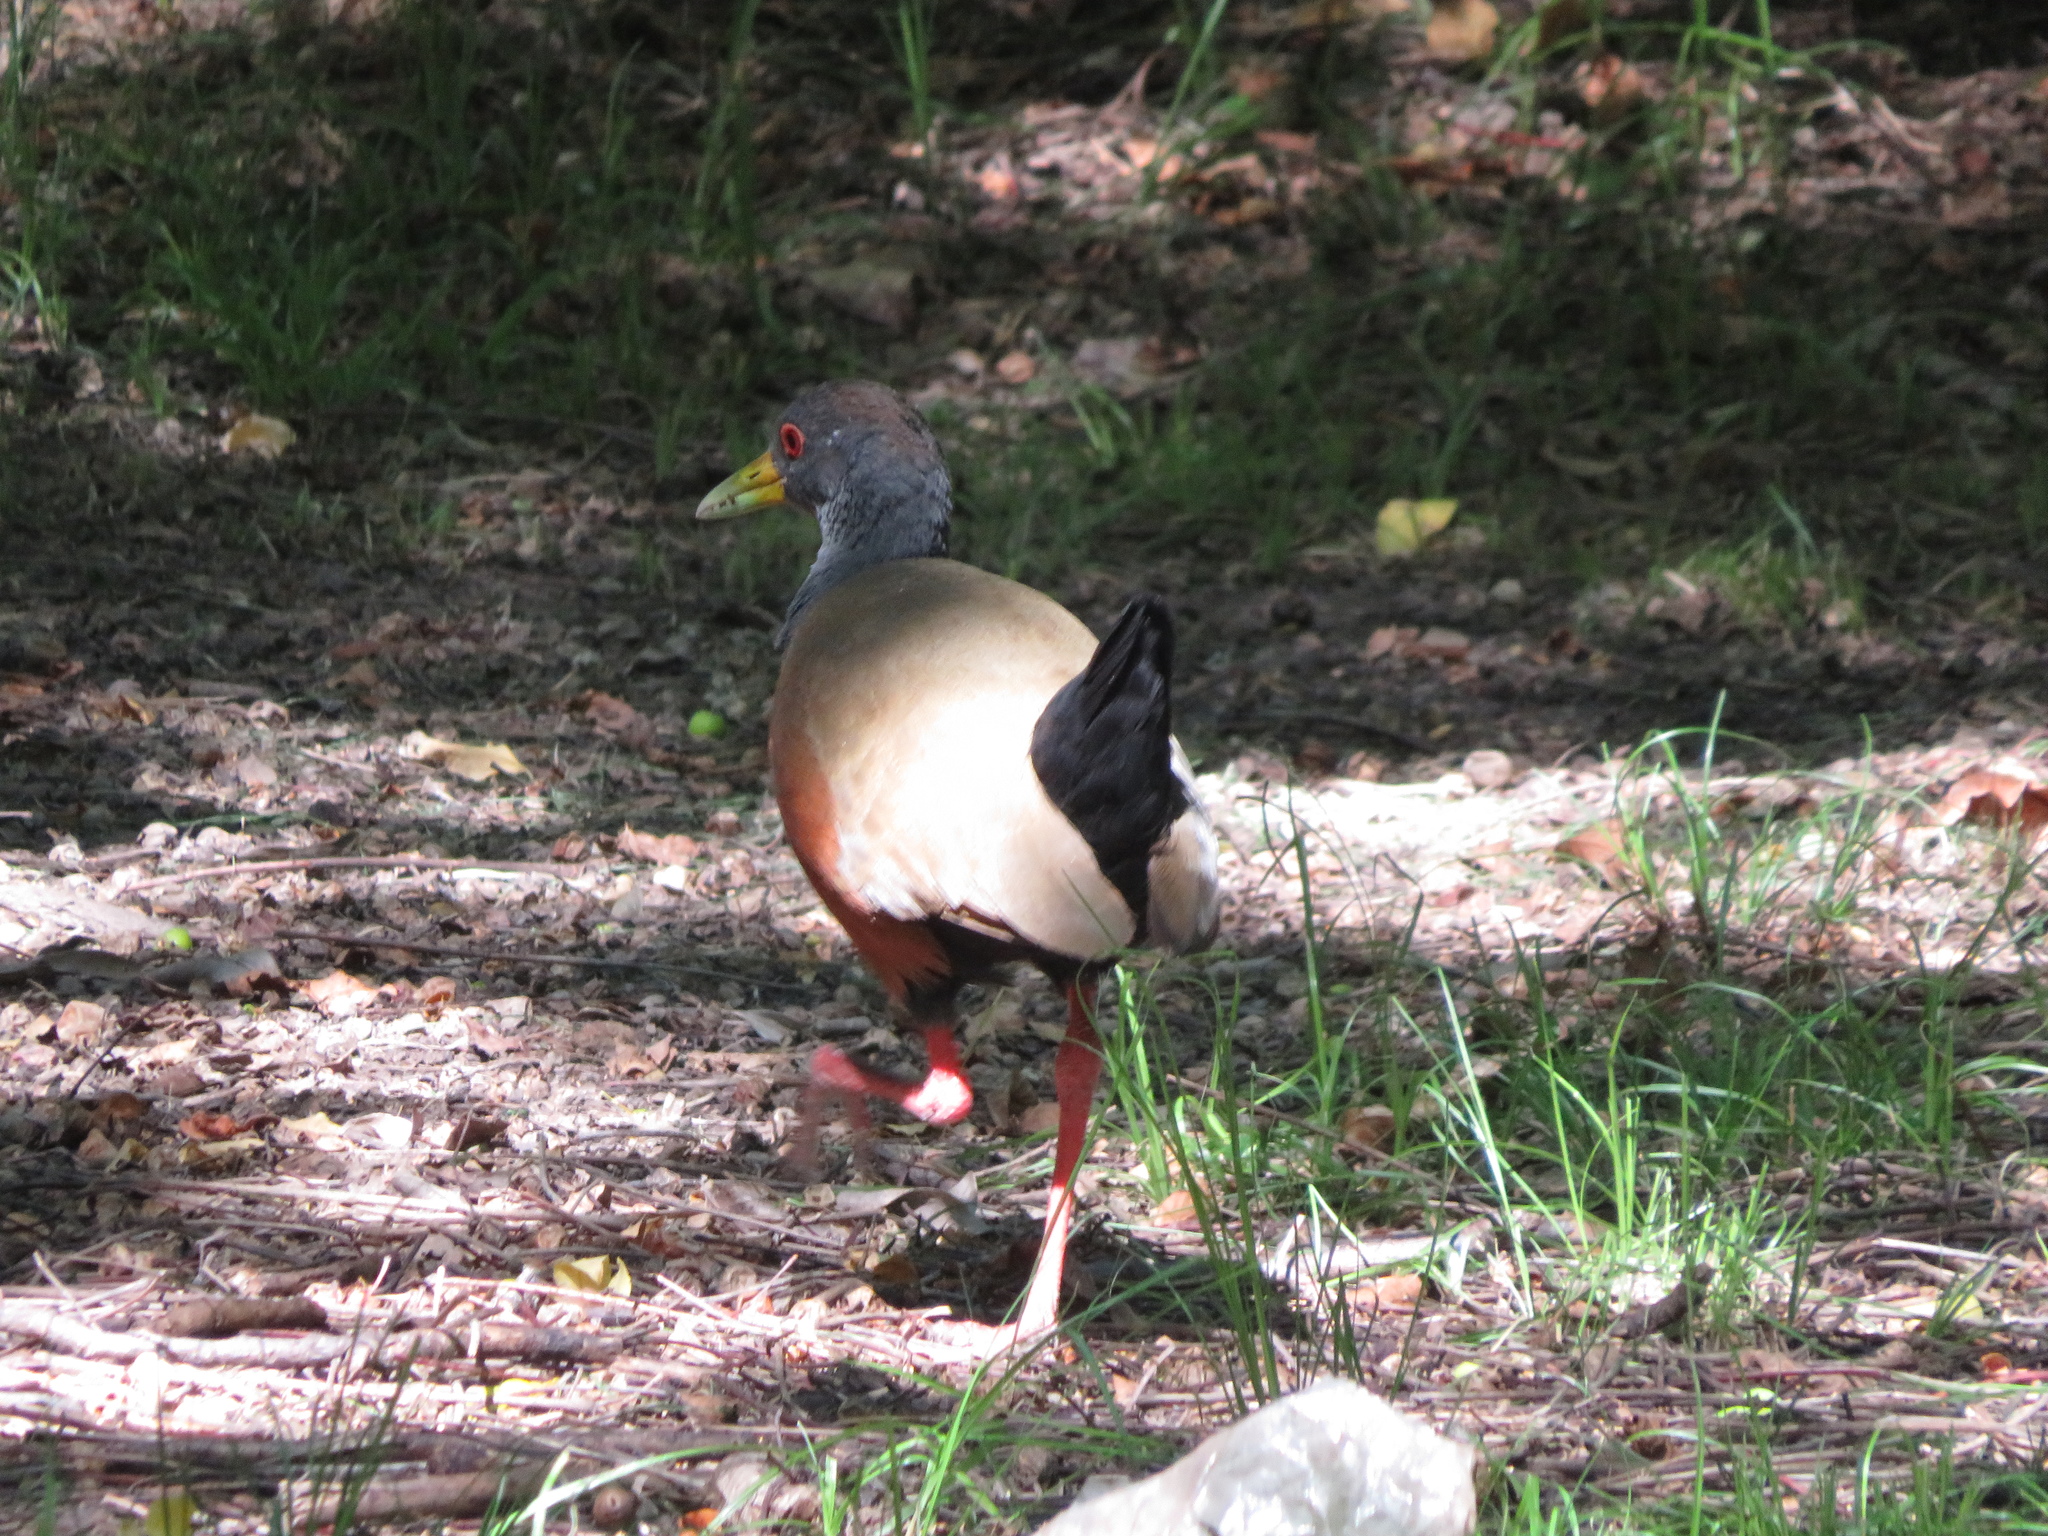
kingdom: Animalia
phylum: Chordata
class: Aves
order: Gruiformes
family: Rallidae
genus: Aramides
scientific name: Aramides cajanea
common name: Gray-necked wood-rail
